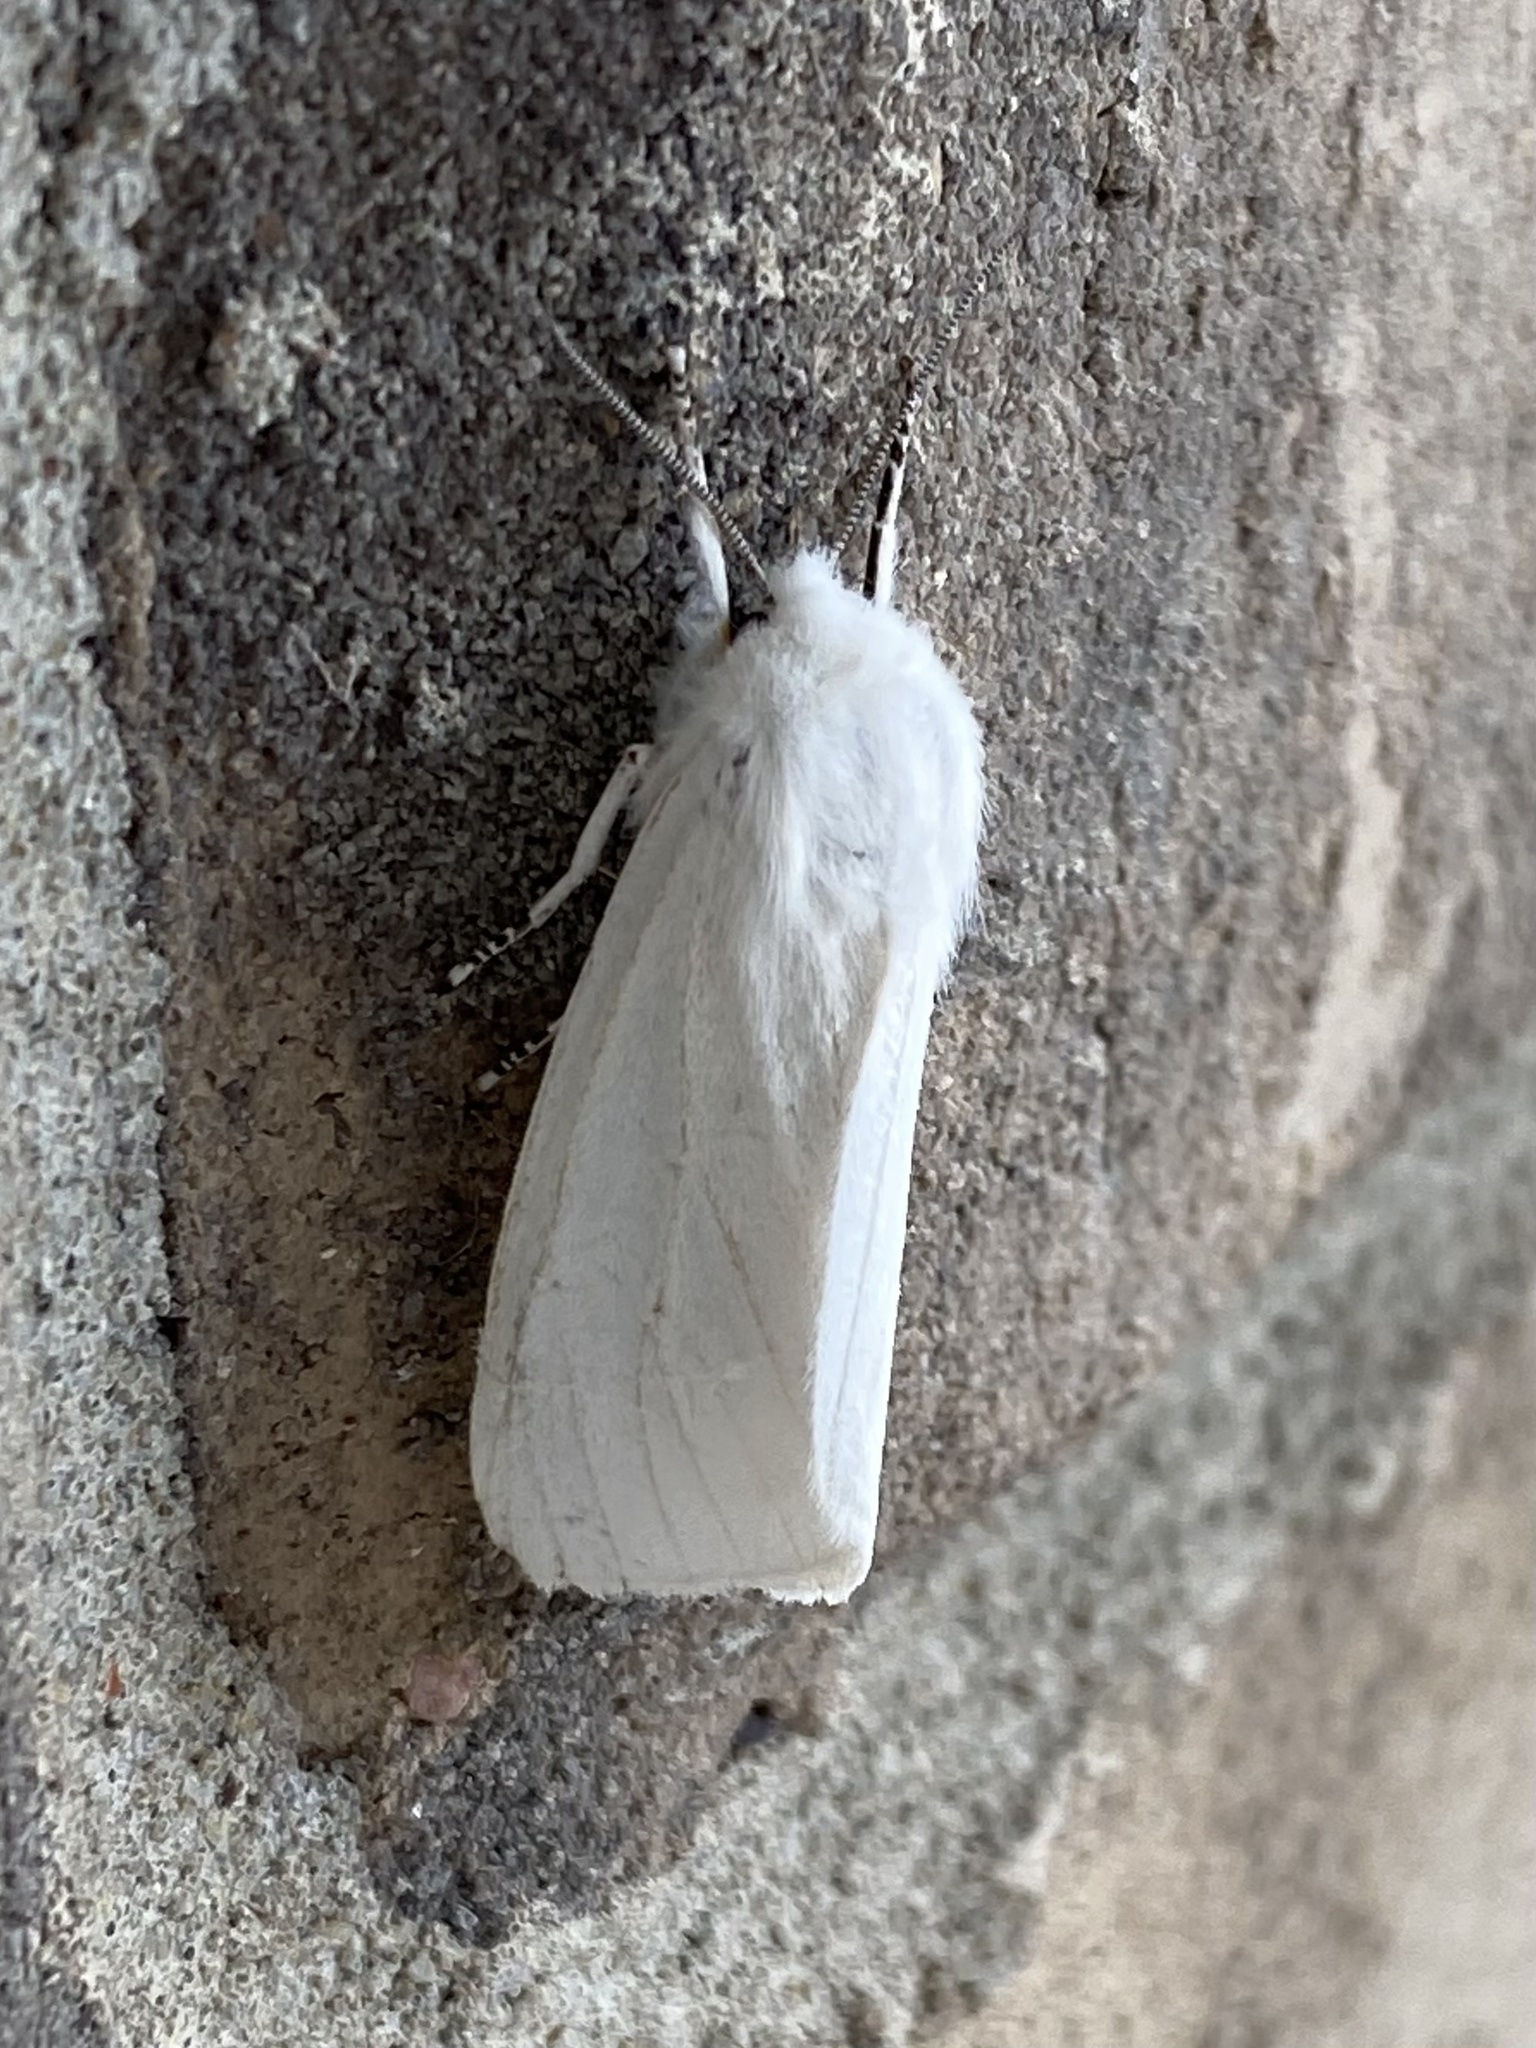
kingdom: Animalia
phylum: Arthropoda
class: Insecta
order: Lepidoptera
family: Erebidae
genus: Spilosoma
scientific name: Spilosoma virginica
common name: Virginia tiger moth
